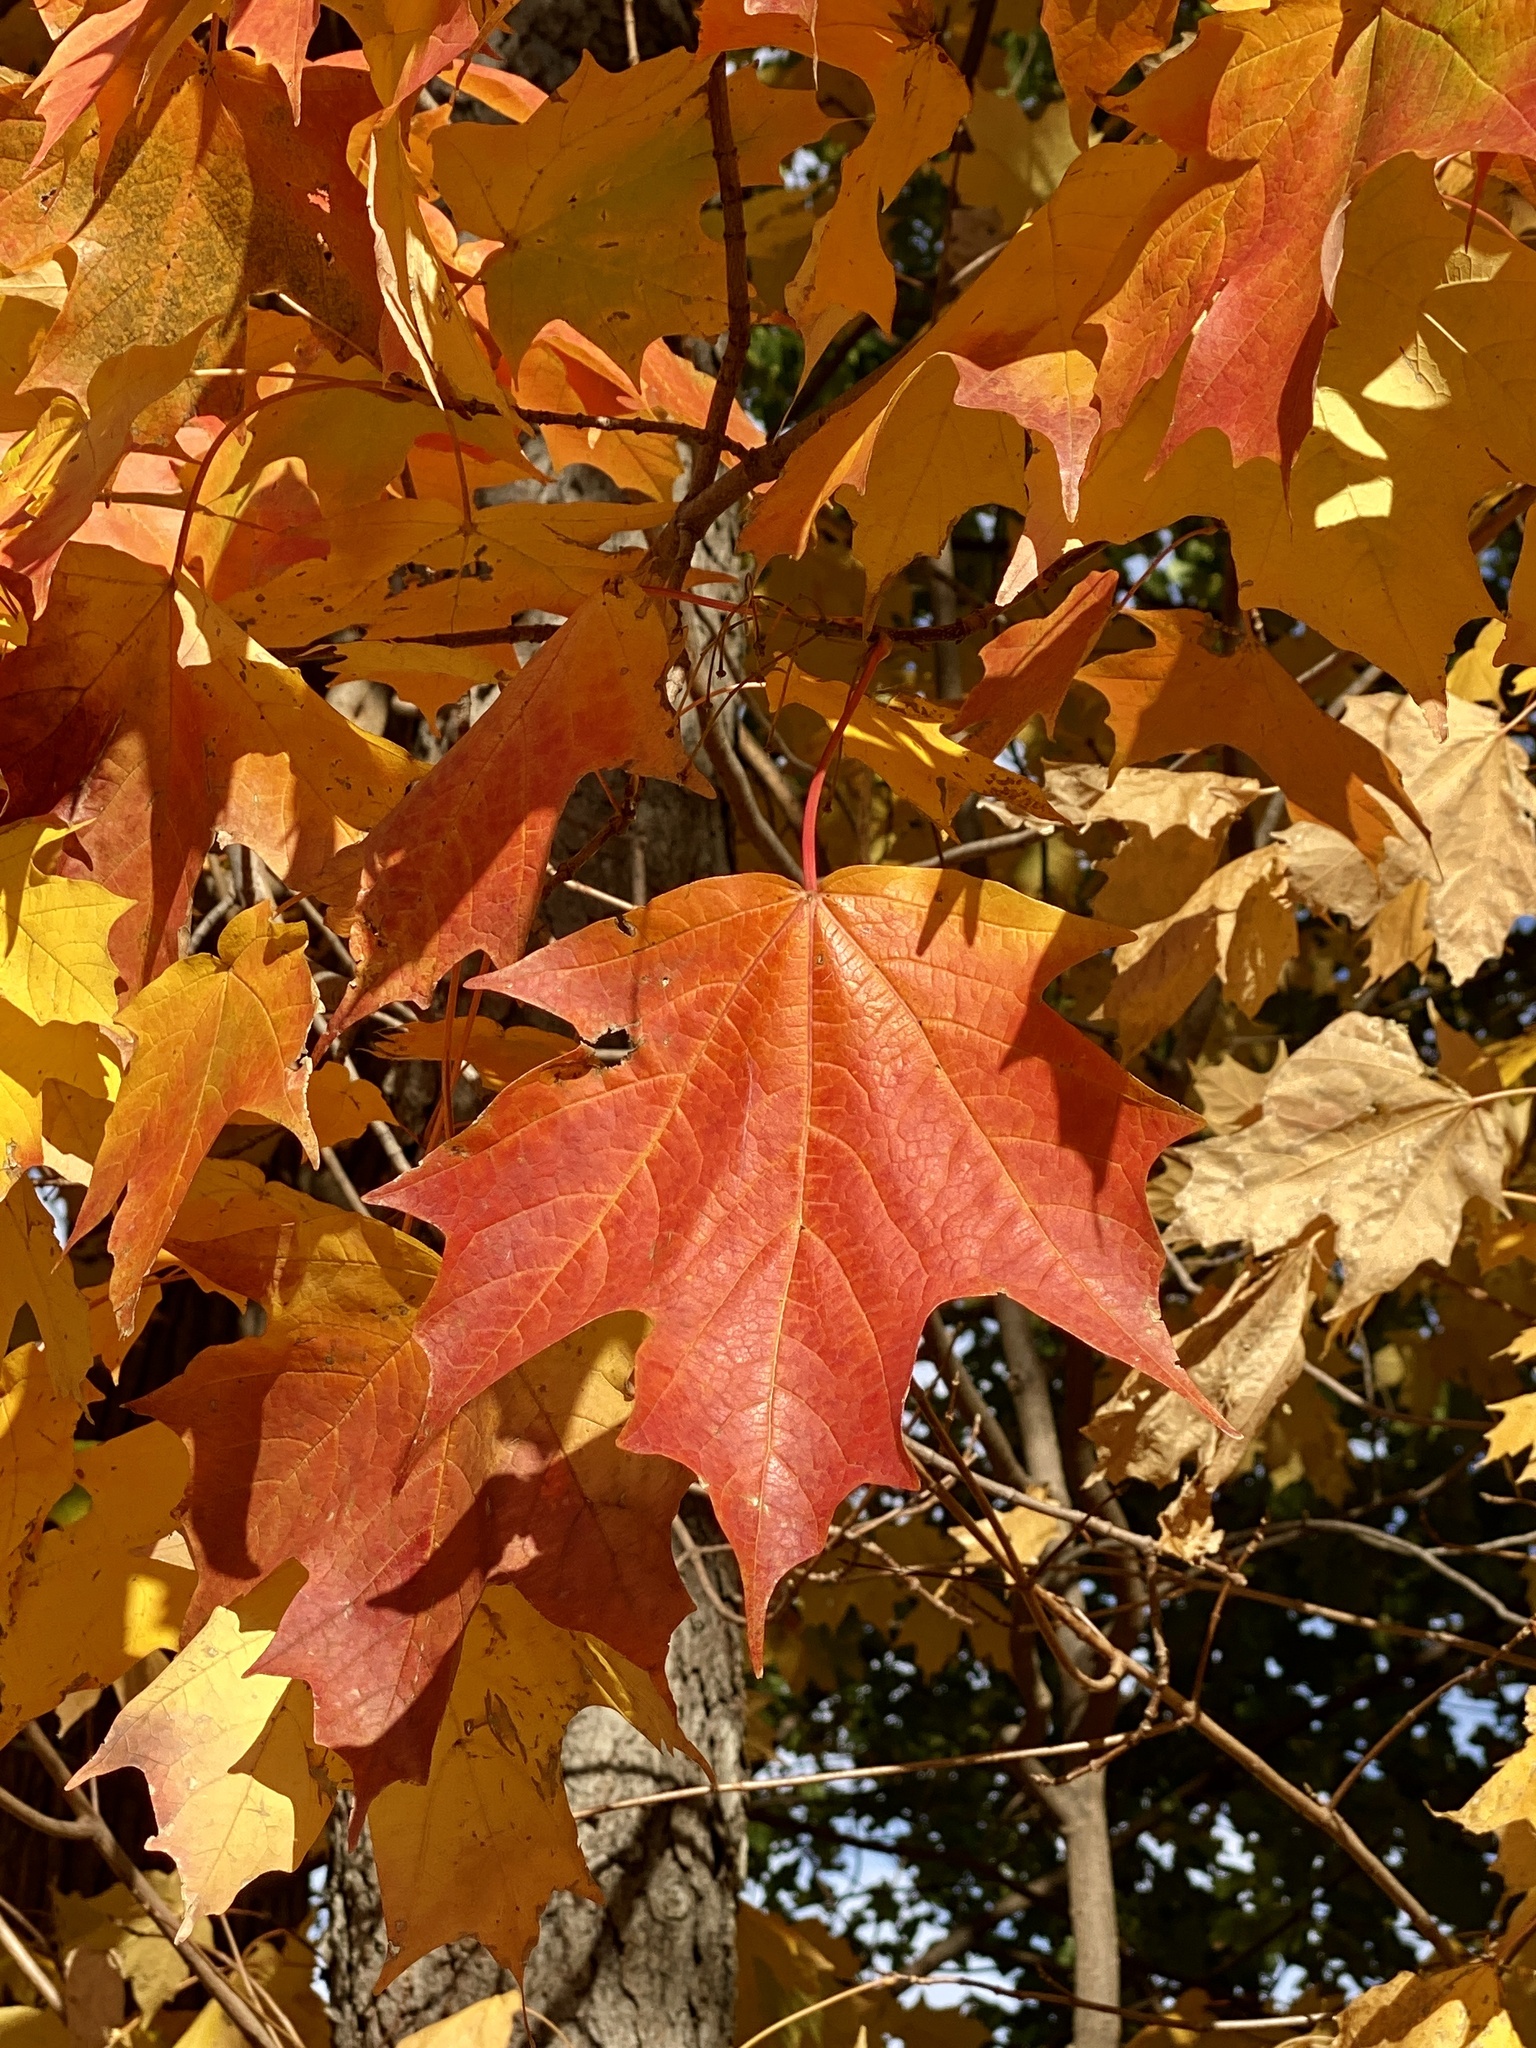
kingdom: Plantae
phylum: Tracheophyta
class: Magnoliopsida
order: Sapindales
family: Sapindaceae
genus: Acer
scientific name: Acer saccharum
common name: Sugar maple
